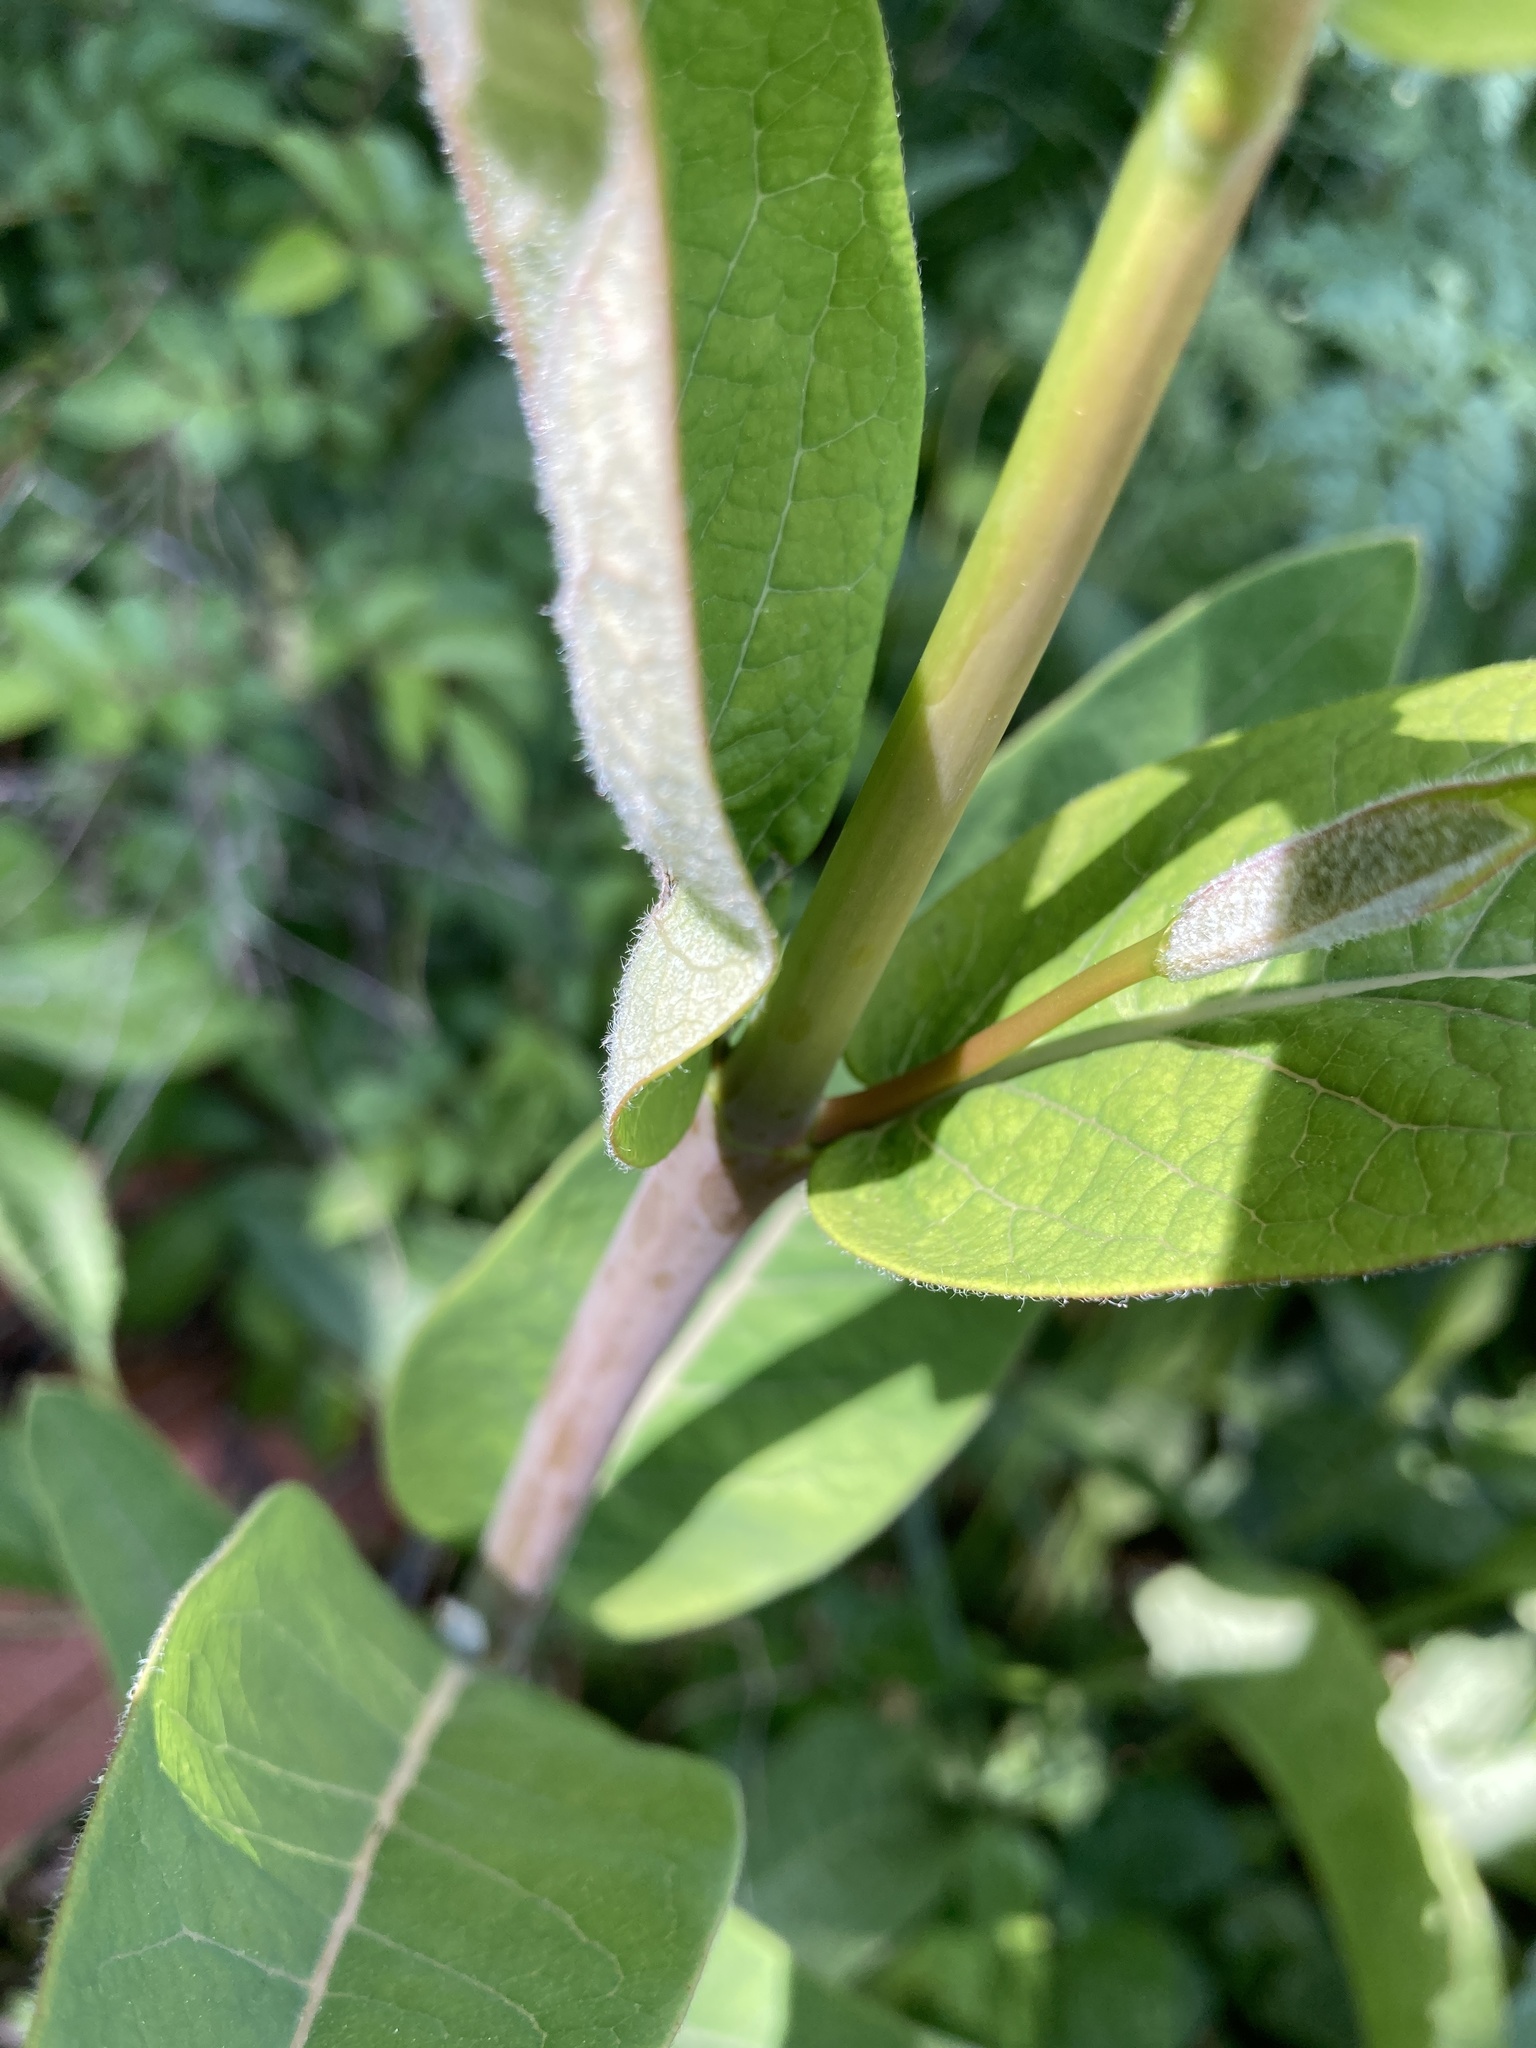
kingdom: Plantae
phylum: Tracheophyta
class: Magnoliopsida
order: Gentianales
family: Apocynaceae
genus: Asclepias
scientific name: Asclepias syriaca
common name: Common milkweed
